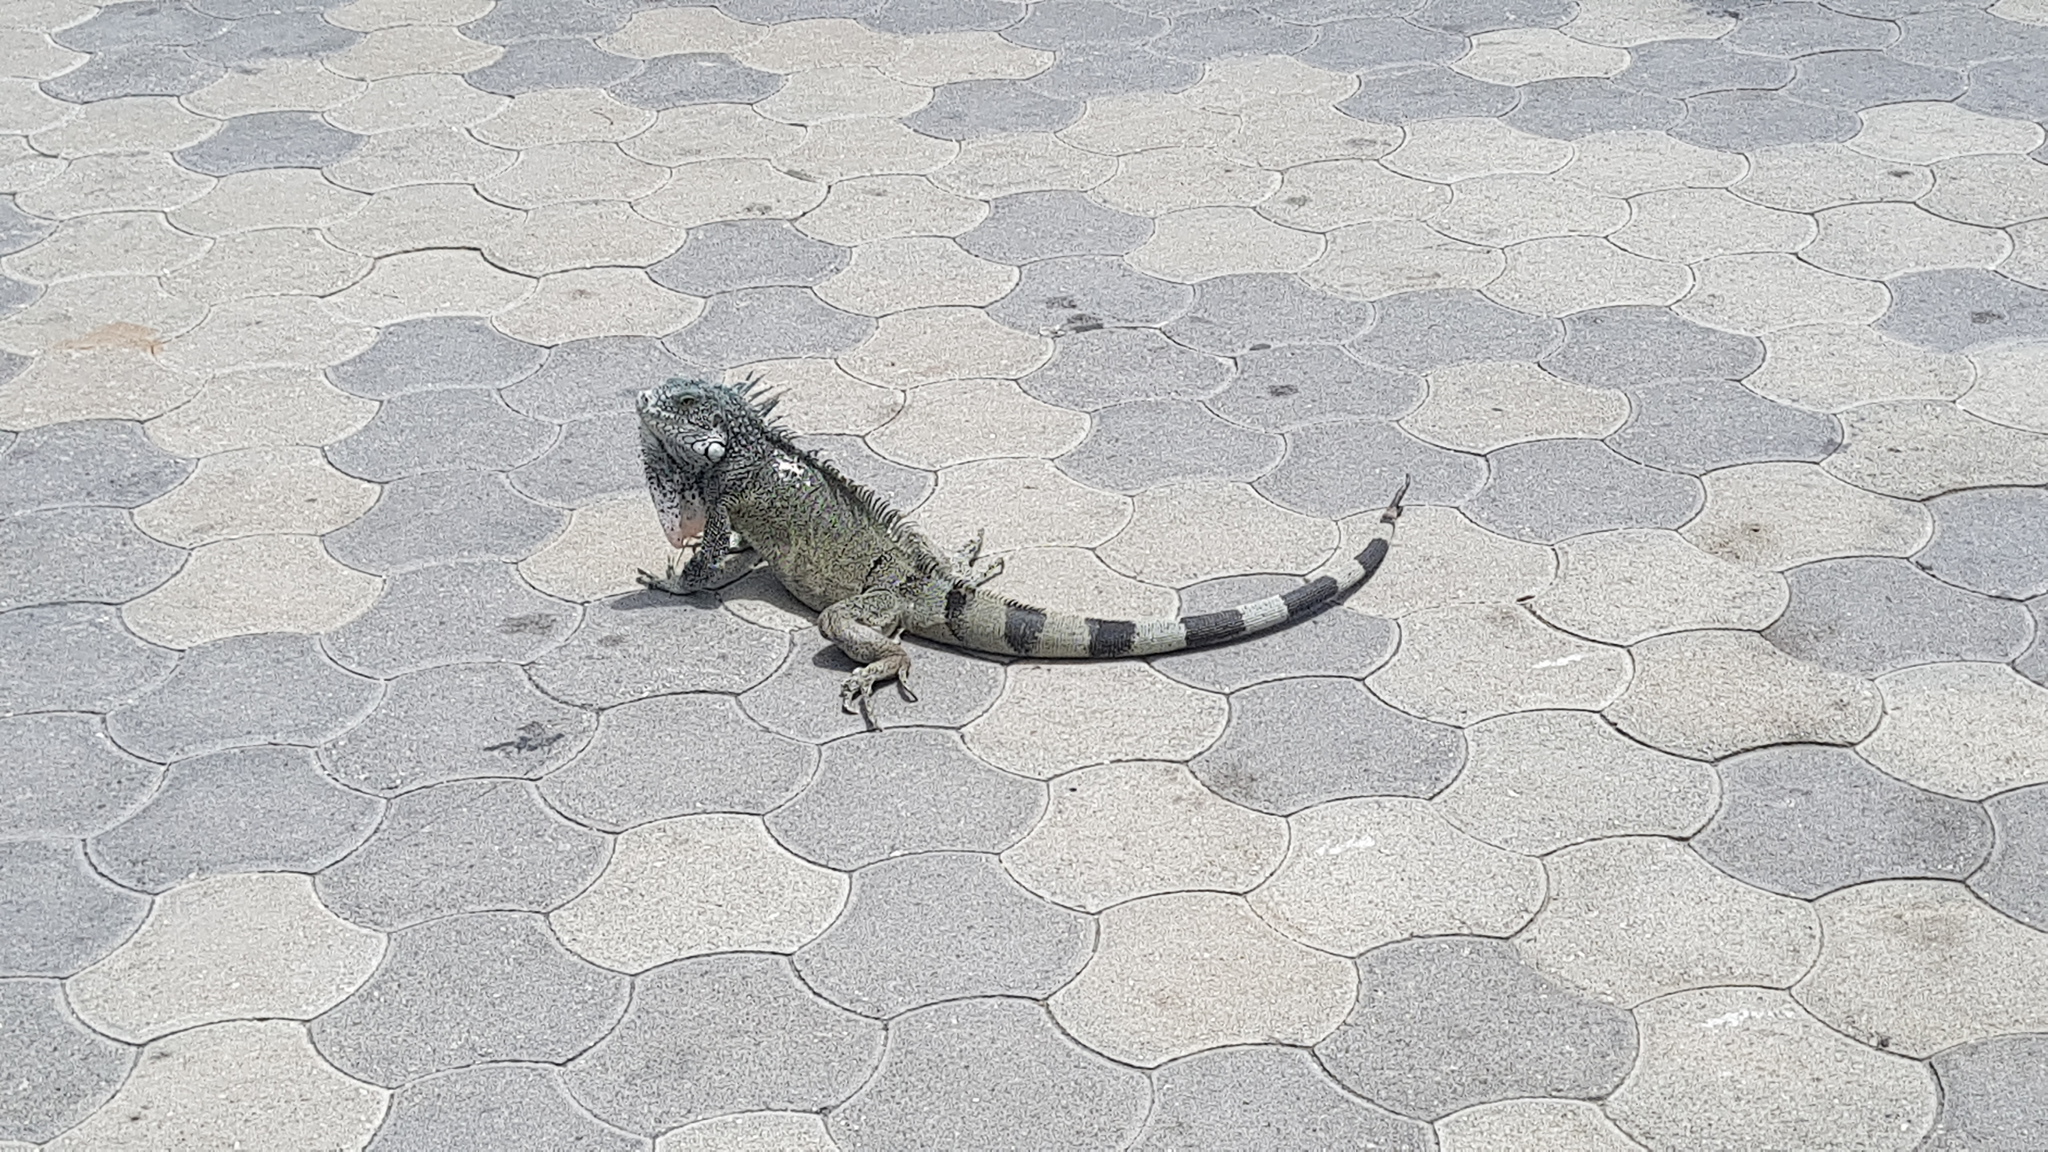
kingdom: Animalia
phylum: Chordata
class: Squamata
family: Iguanidae
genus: Iguana
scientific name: Iguana iguana
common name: Green iguana
